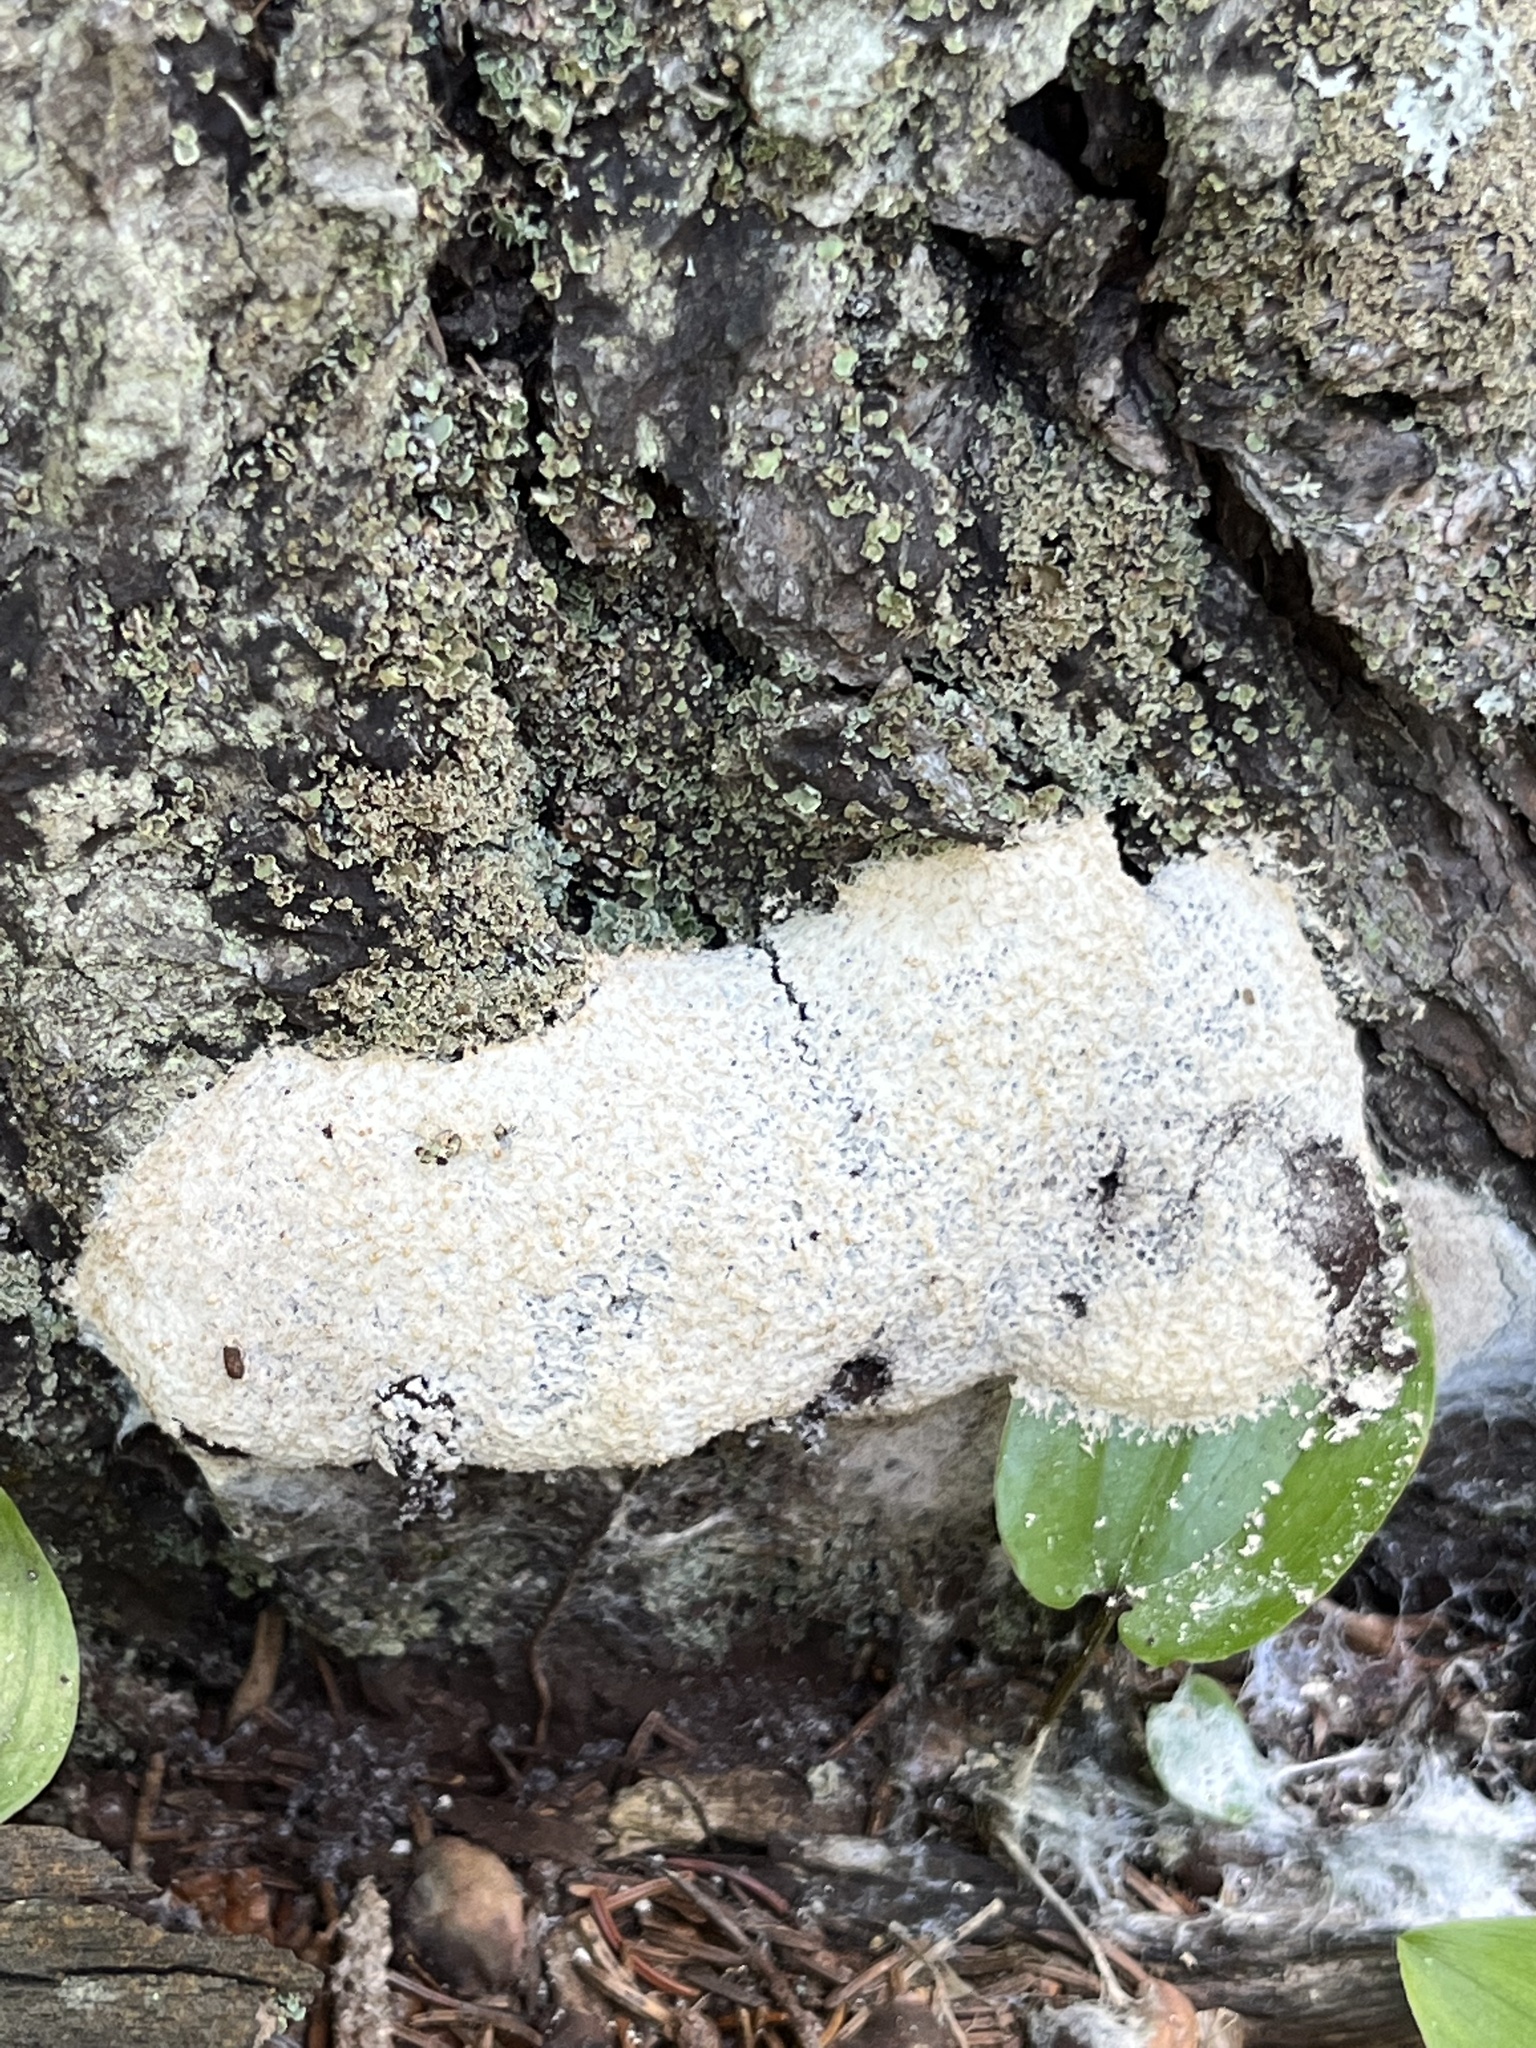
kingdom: Protozoa
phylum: Mycetozoa
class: Myxomycetes
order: Physarales
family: Physaraceae
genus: Fuligo
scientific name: Fuligo septica
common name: Dog vomit slime mold
